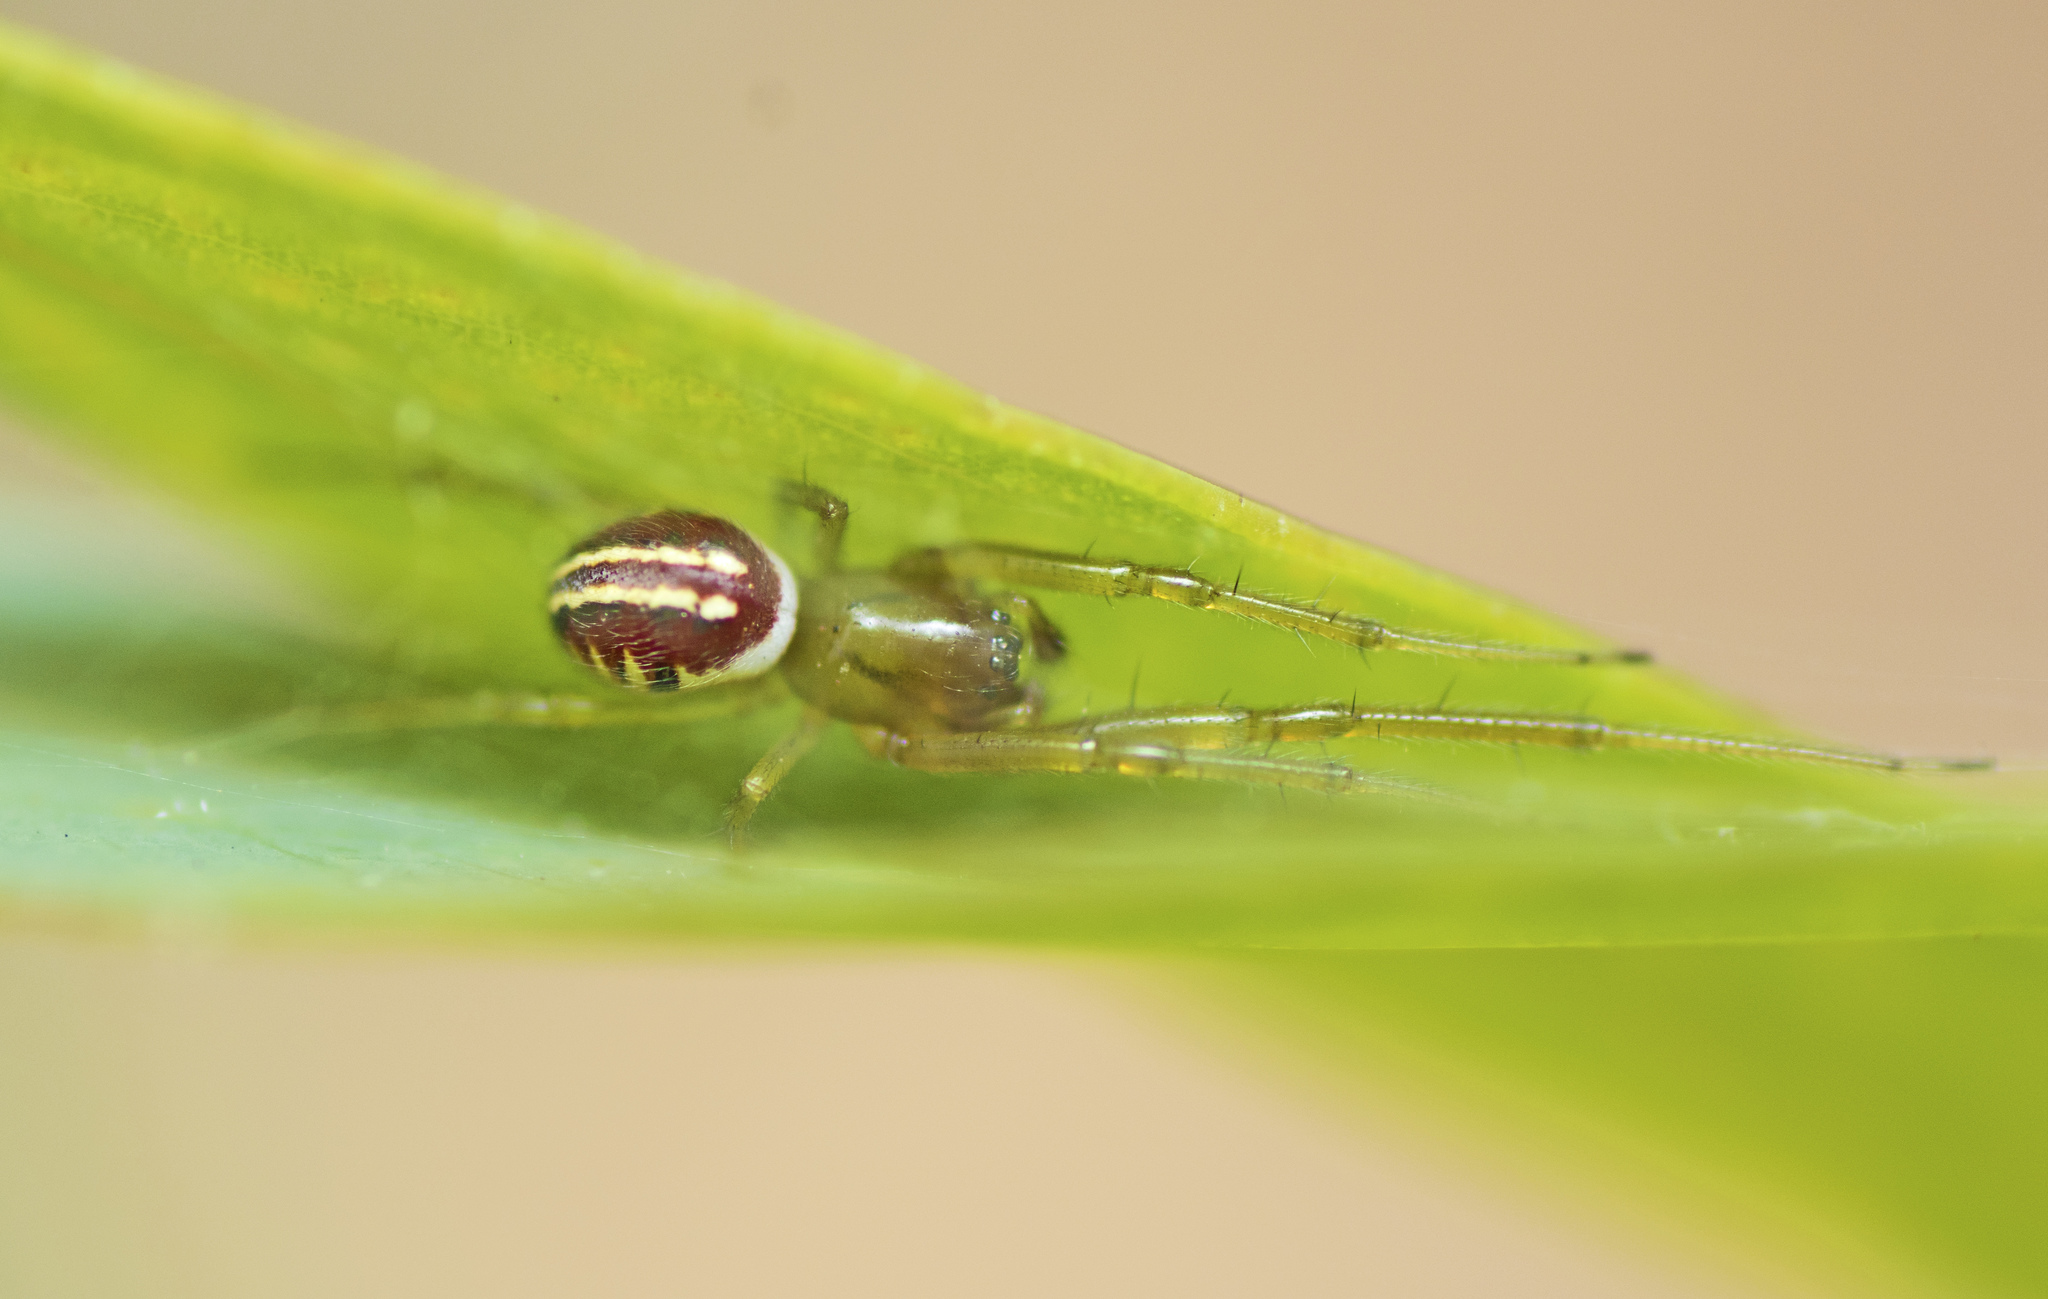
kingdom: Animalia
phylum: Arthropoda
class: Arachnida
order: Araneae
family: Araneidae
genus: Deliochus
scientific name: Deliochus zelivira
